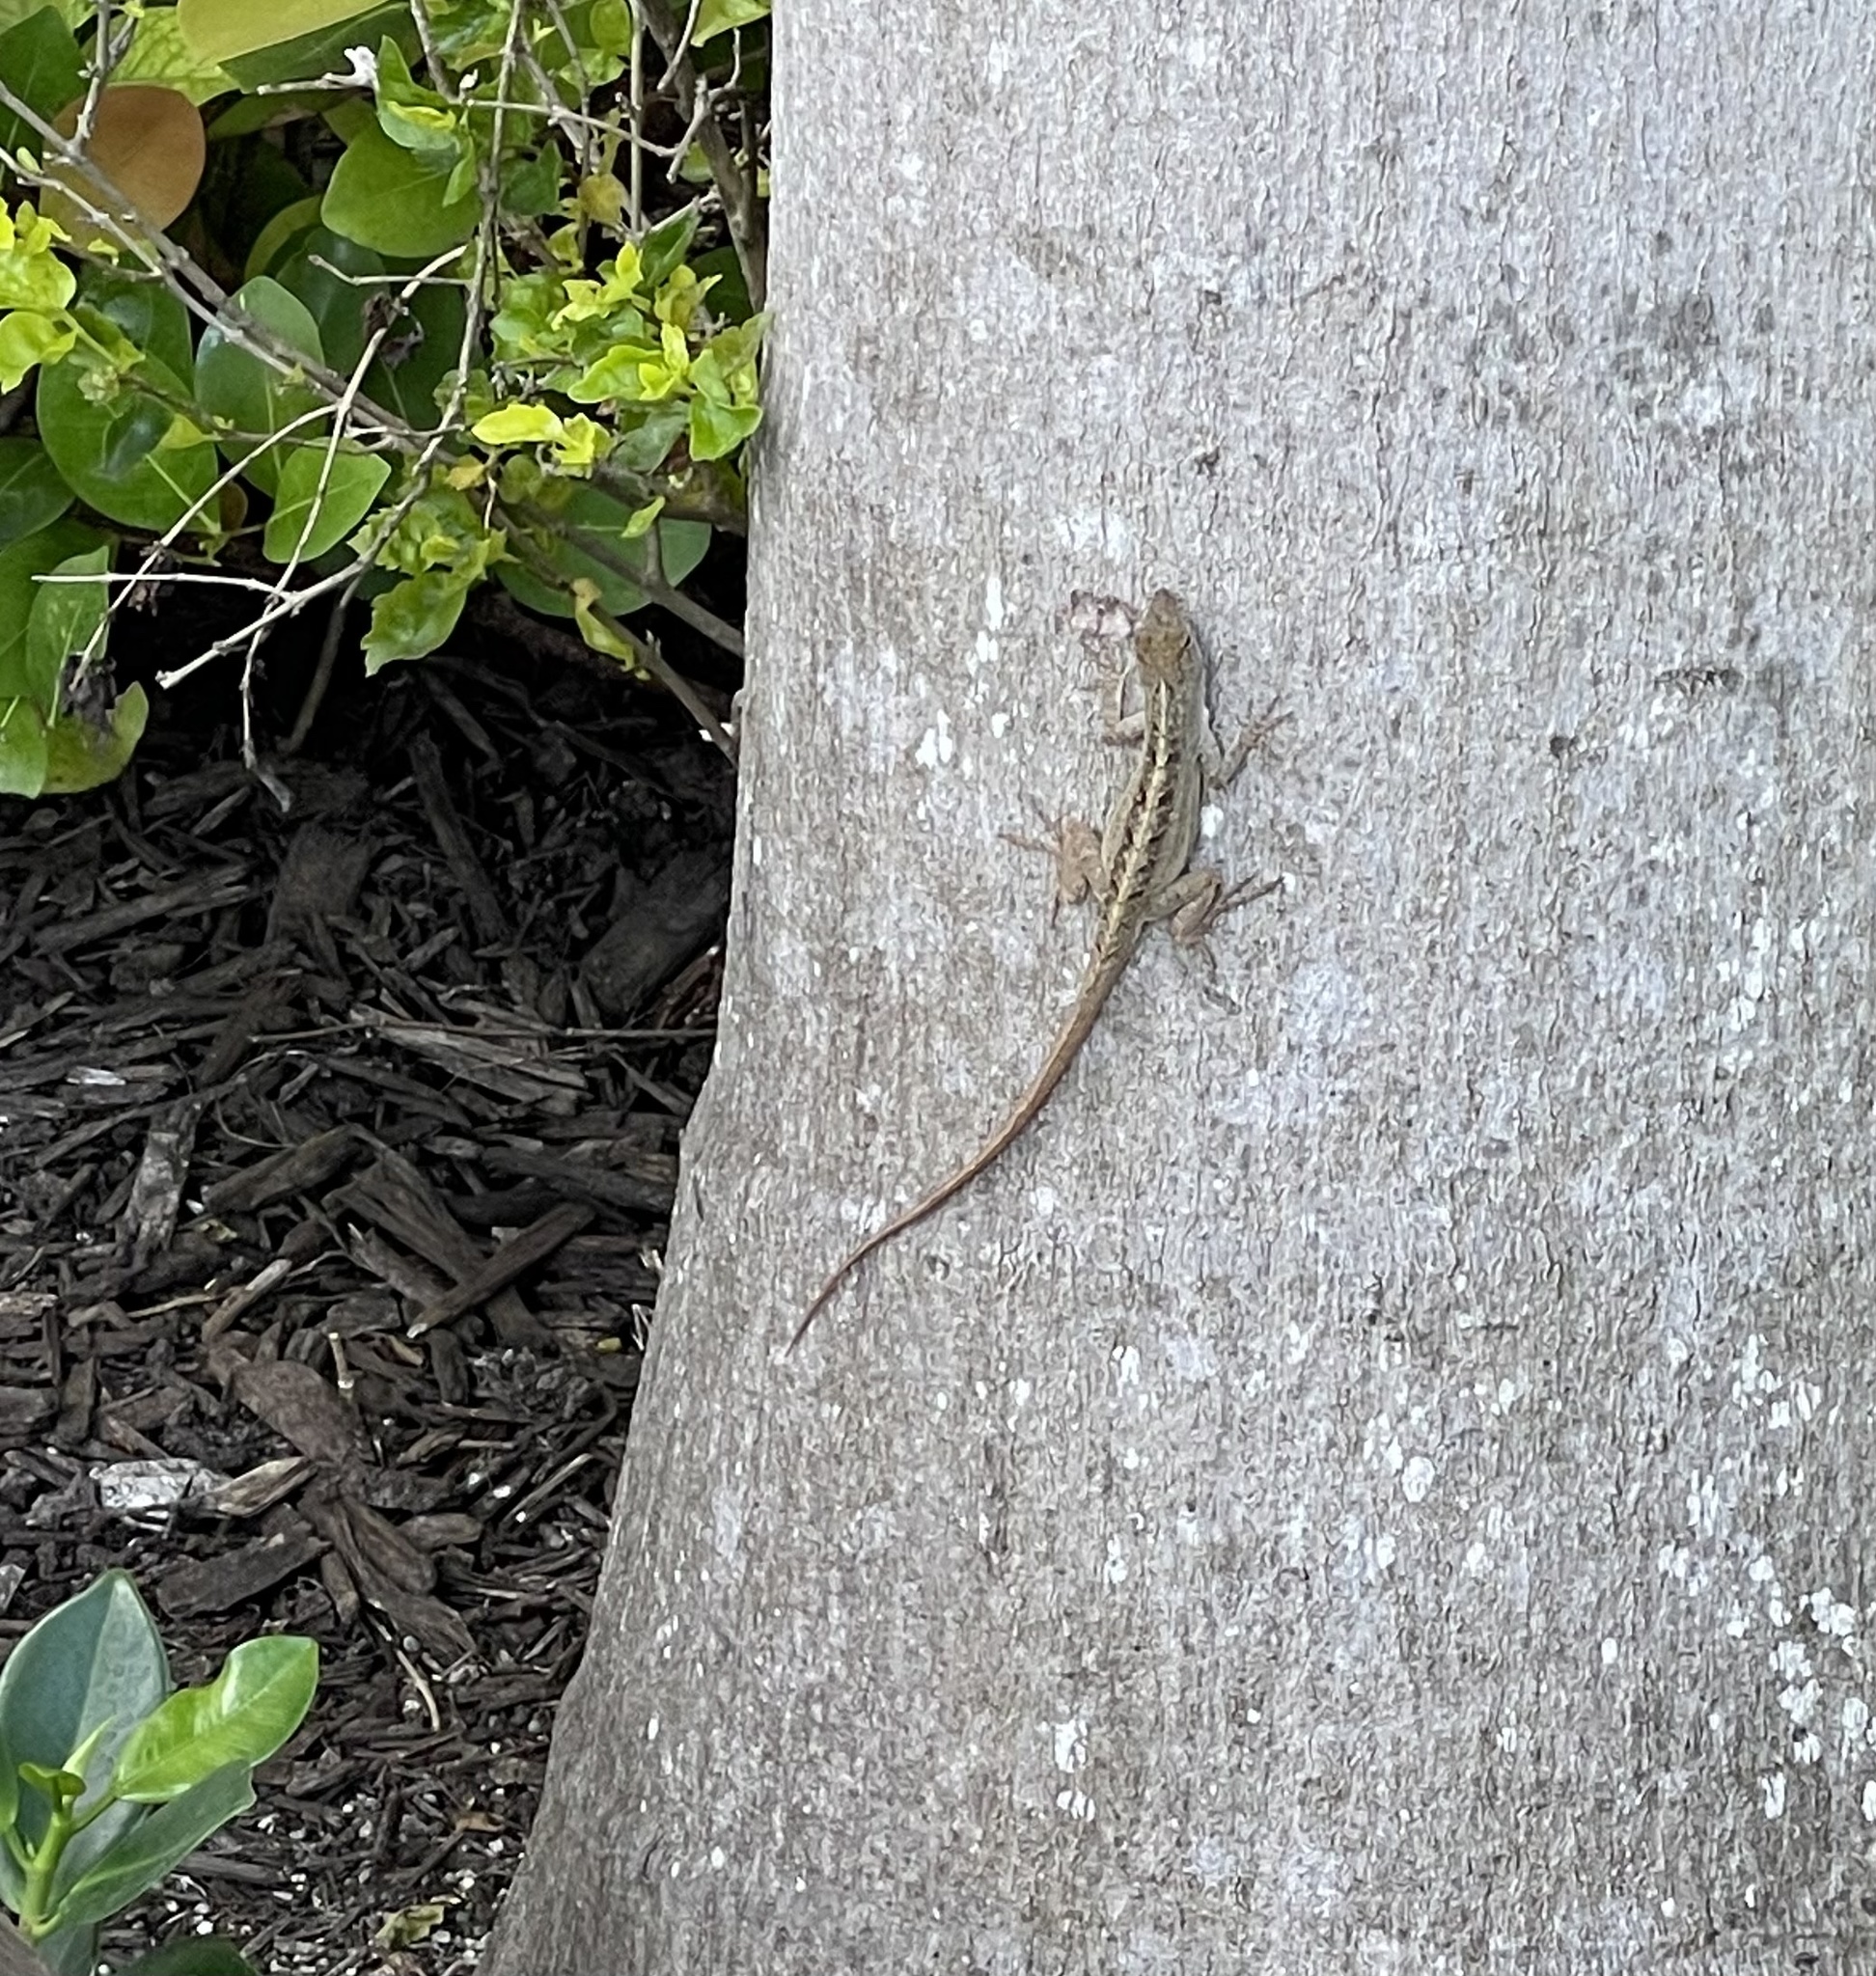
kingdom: Animalia
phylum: Chordata
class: Squamata
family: Dactyloidae
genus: Anolis
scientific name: Anolis sagrei
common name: Brown anole
